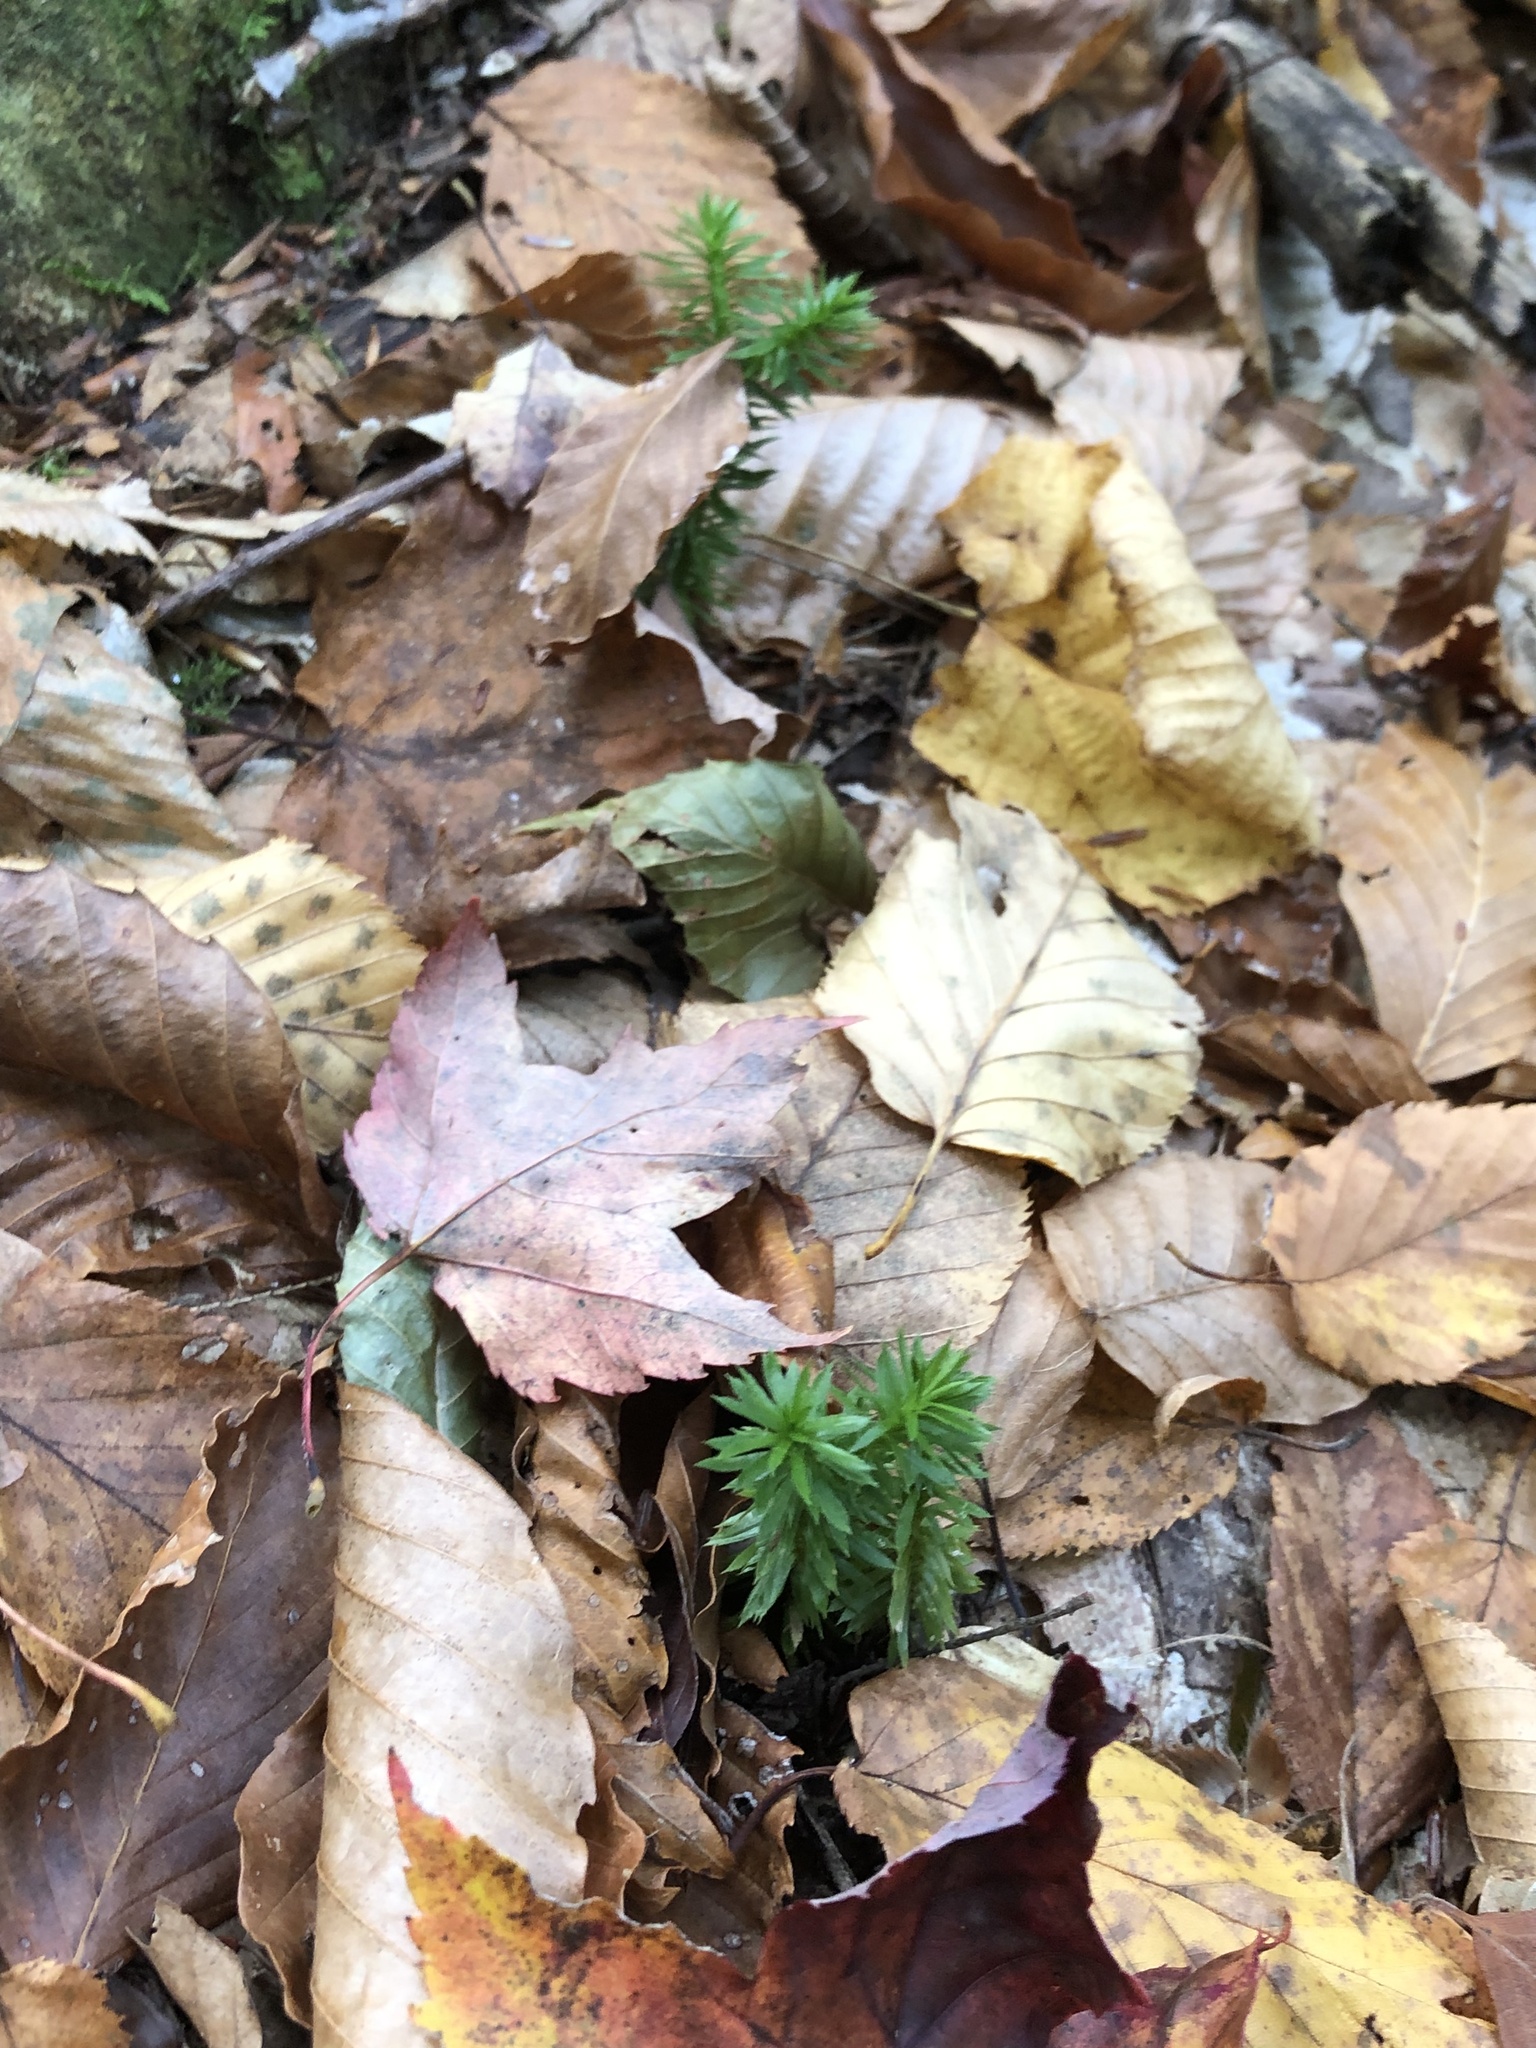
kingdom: Plantae
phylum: Tracheophyta
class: Lycopodiopsida
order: Lycopodiales
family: Lycopodiaceae
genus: Huperzia
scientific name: Huperzia lucidula
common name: Shining clubmoss
